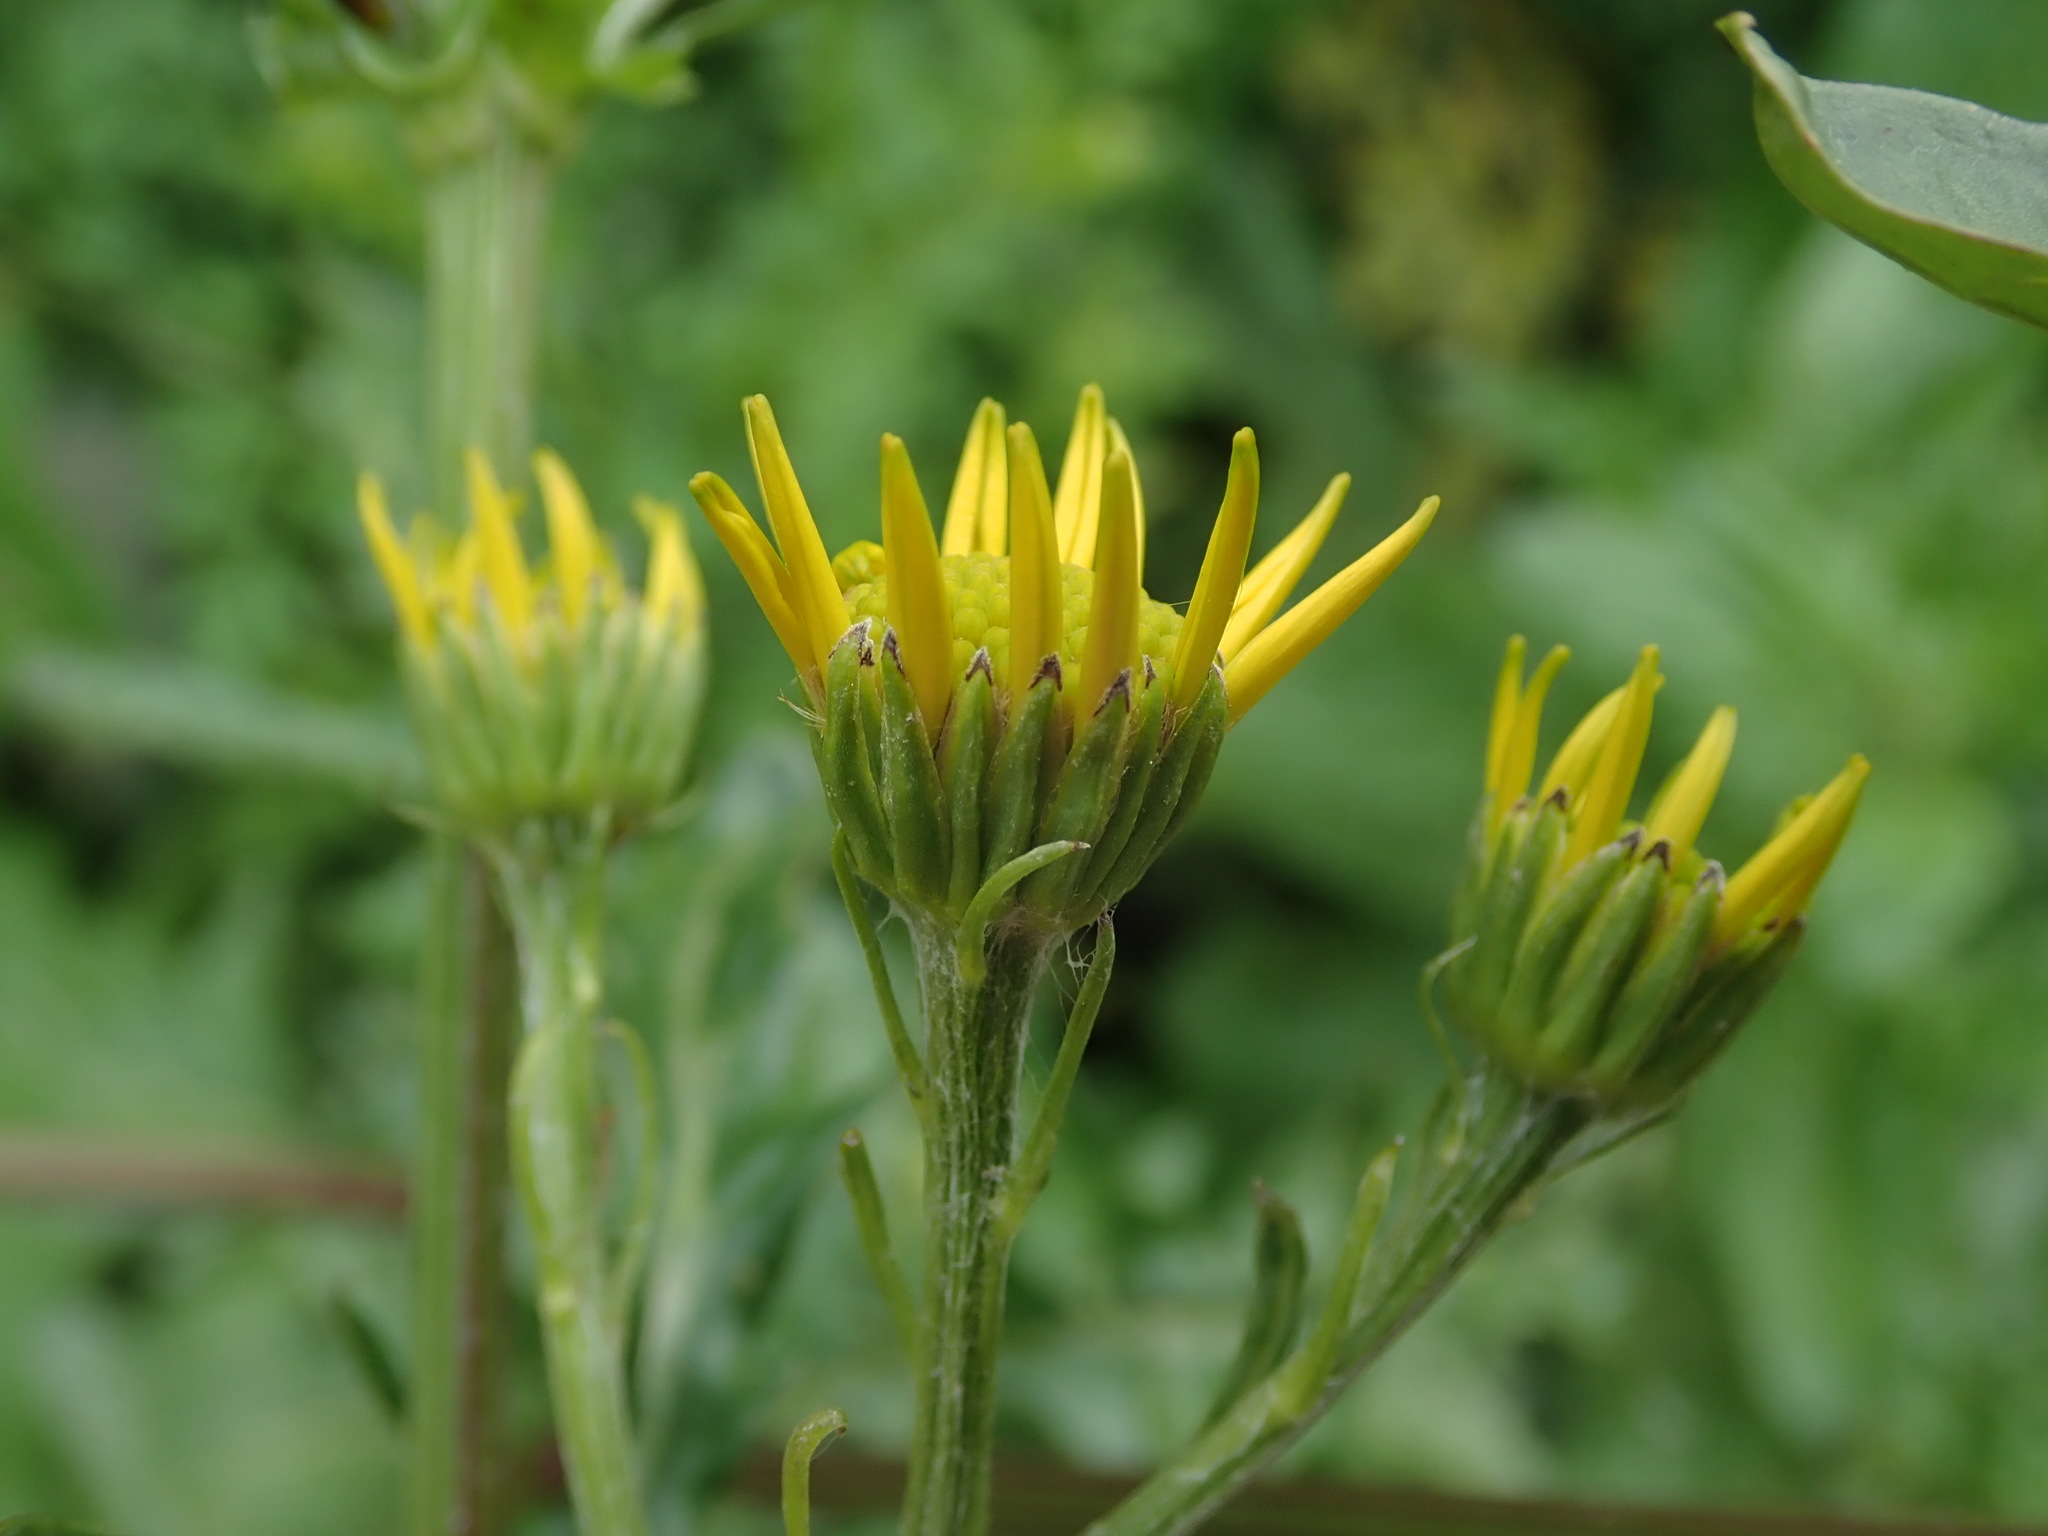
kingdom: Plantae
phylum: Tracheophyta
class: Magnoliopsida
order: Asterales
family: Asteraceae
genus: Jacobaea
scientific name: Jacobaea aquatica
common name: Water ragwort
